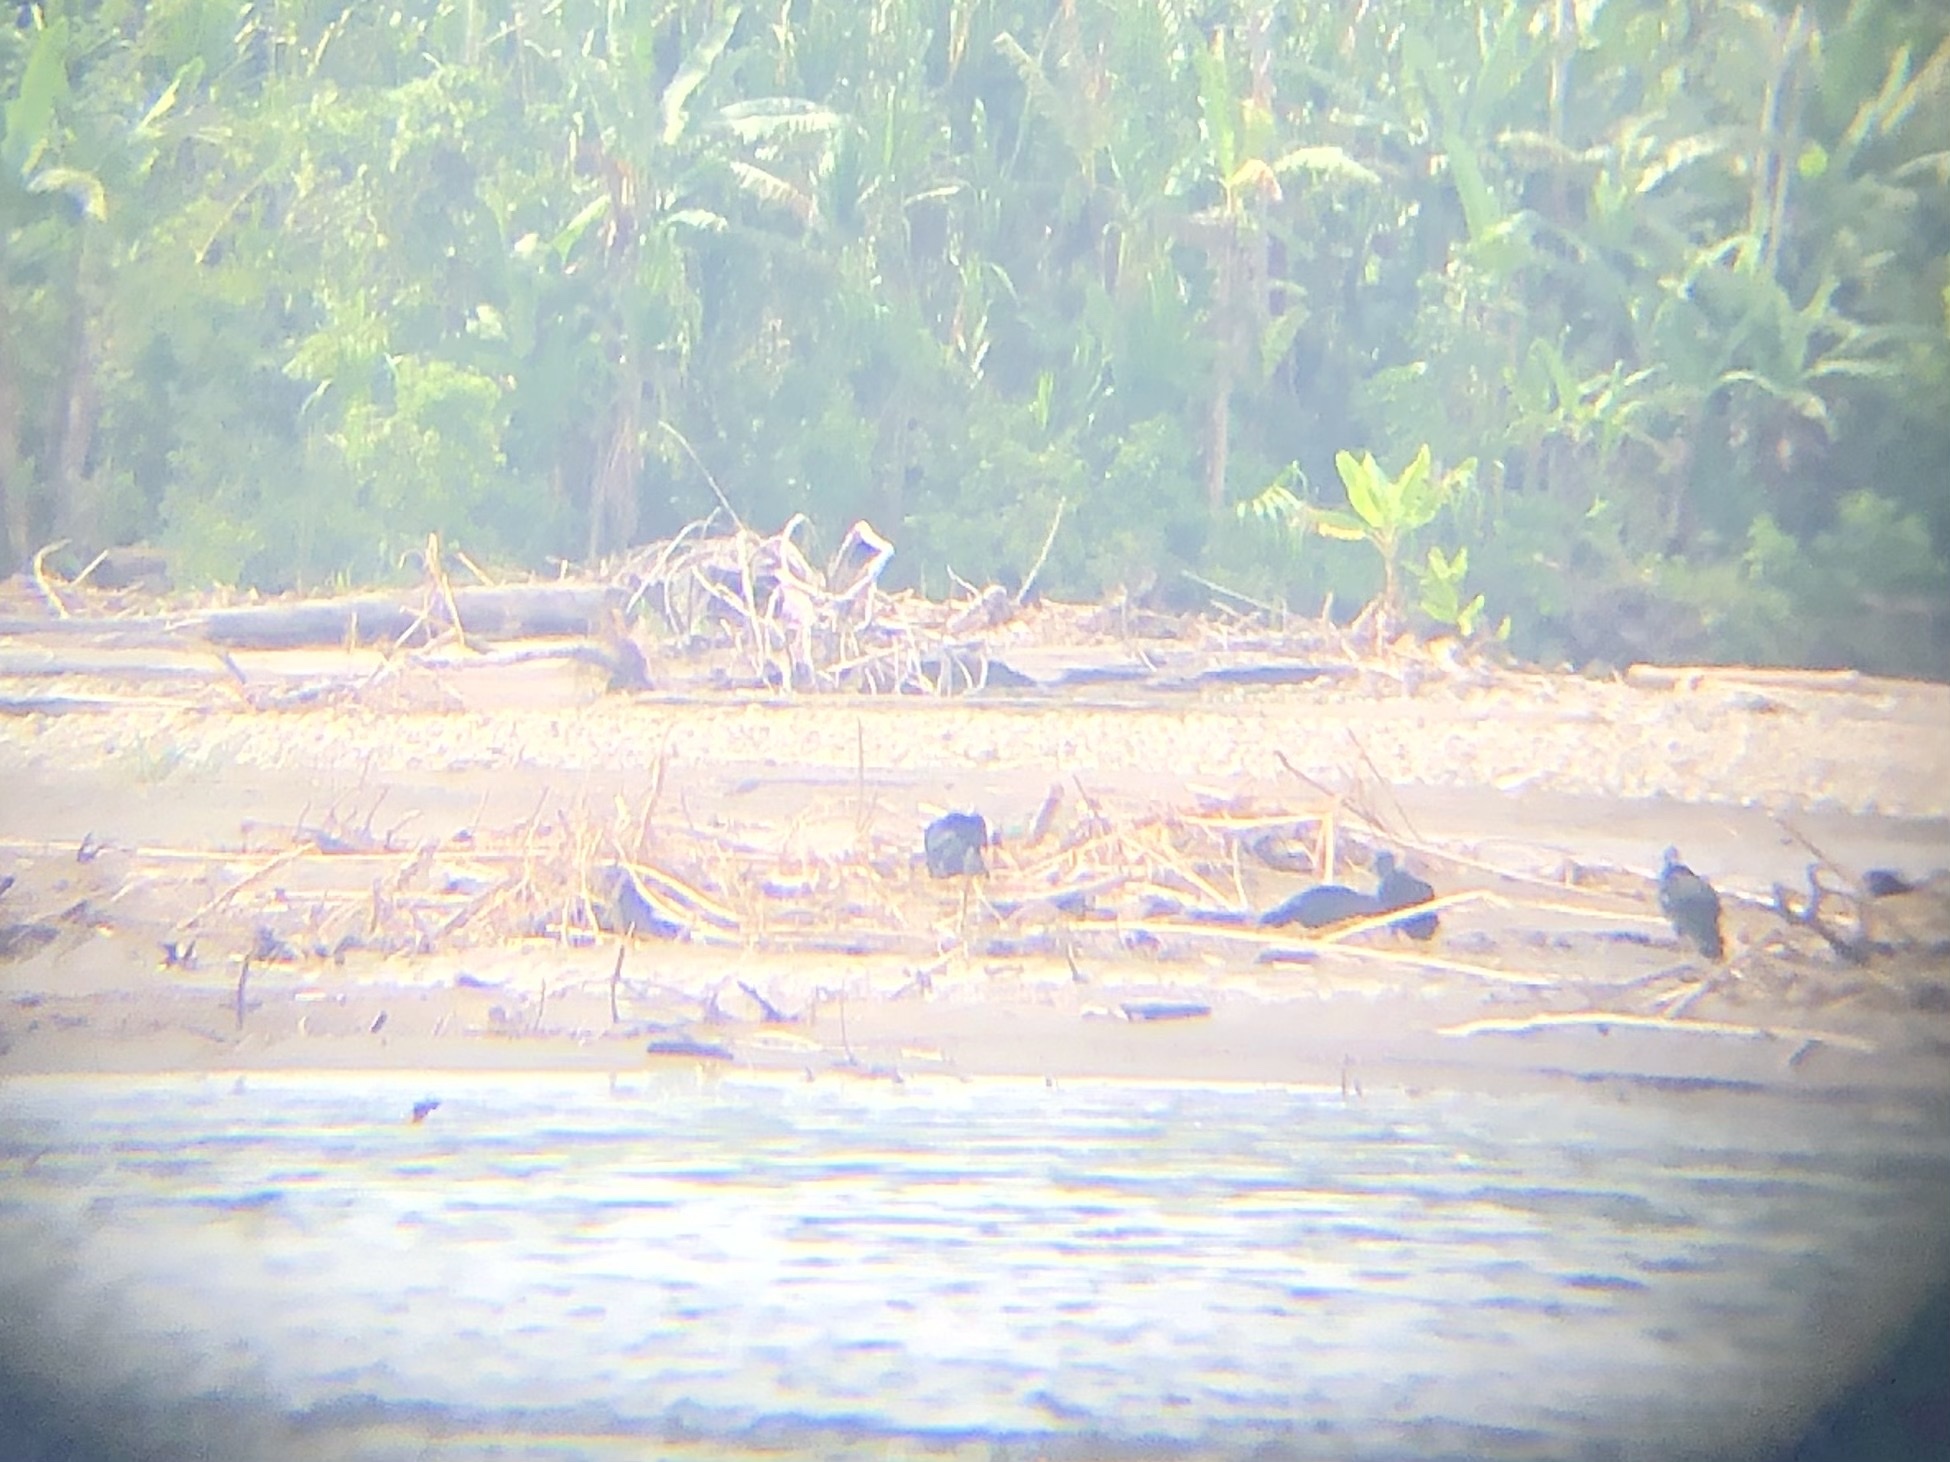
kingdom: Animalia
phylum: Chordata
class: Aves
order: Accipitriformes
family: Cathartidae
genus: Coragyps
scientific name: Coragyps atratus
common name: Black vulture
